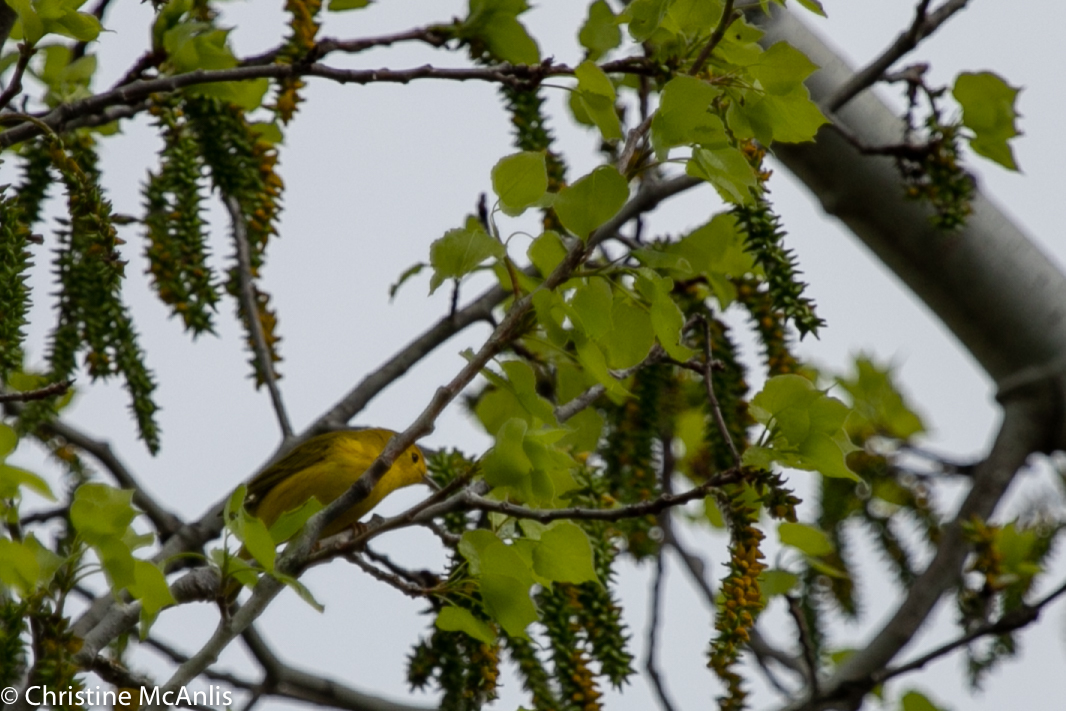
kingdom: Animalia
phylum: Chordata
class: Aves
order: Passeriformes
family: Parulidae
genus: Setophaga
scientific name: Setophaga petechia
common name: Yellow warbler
